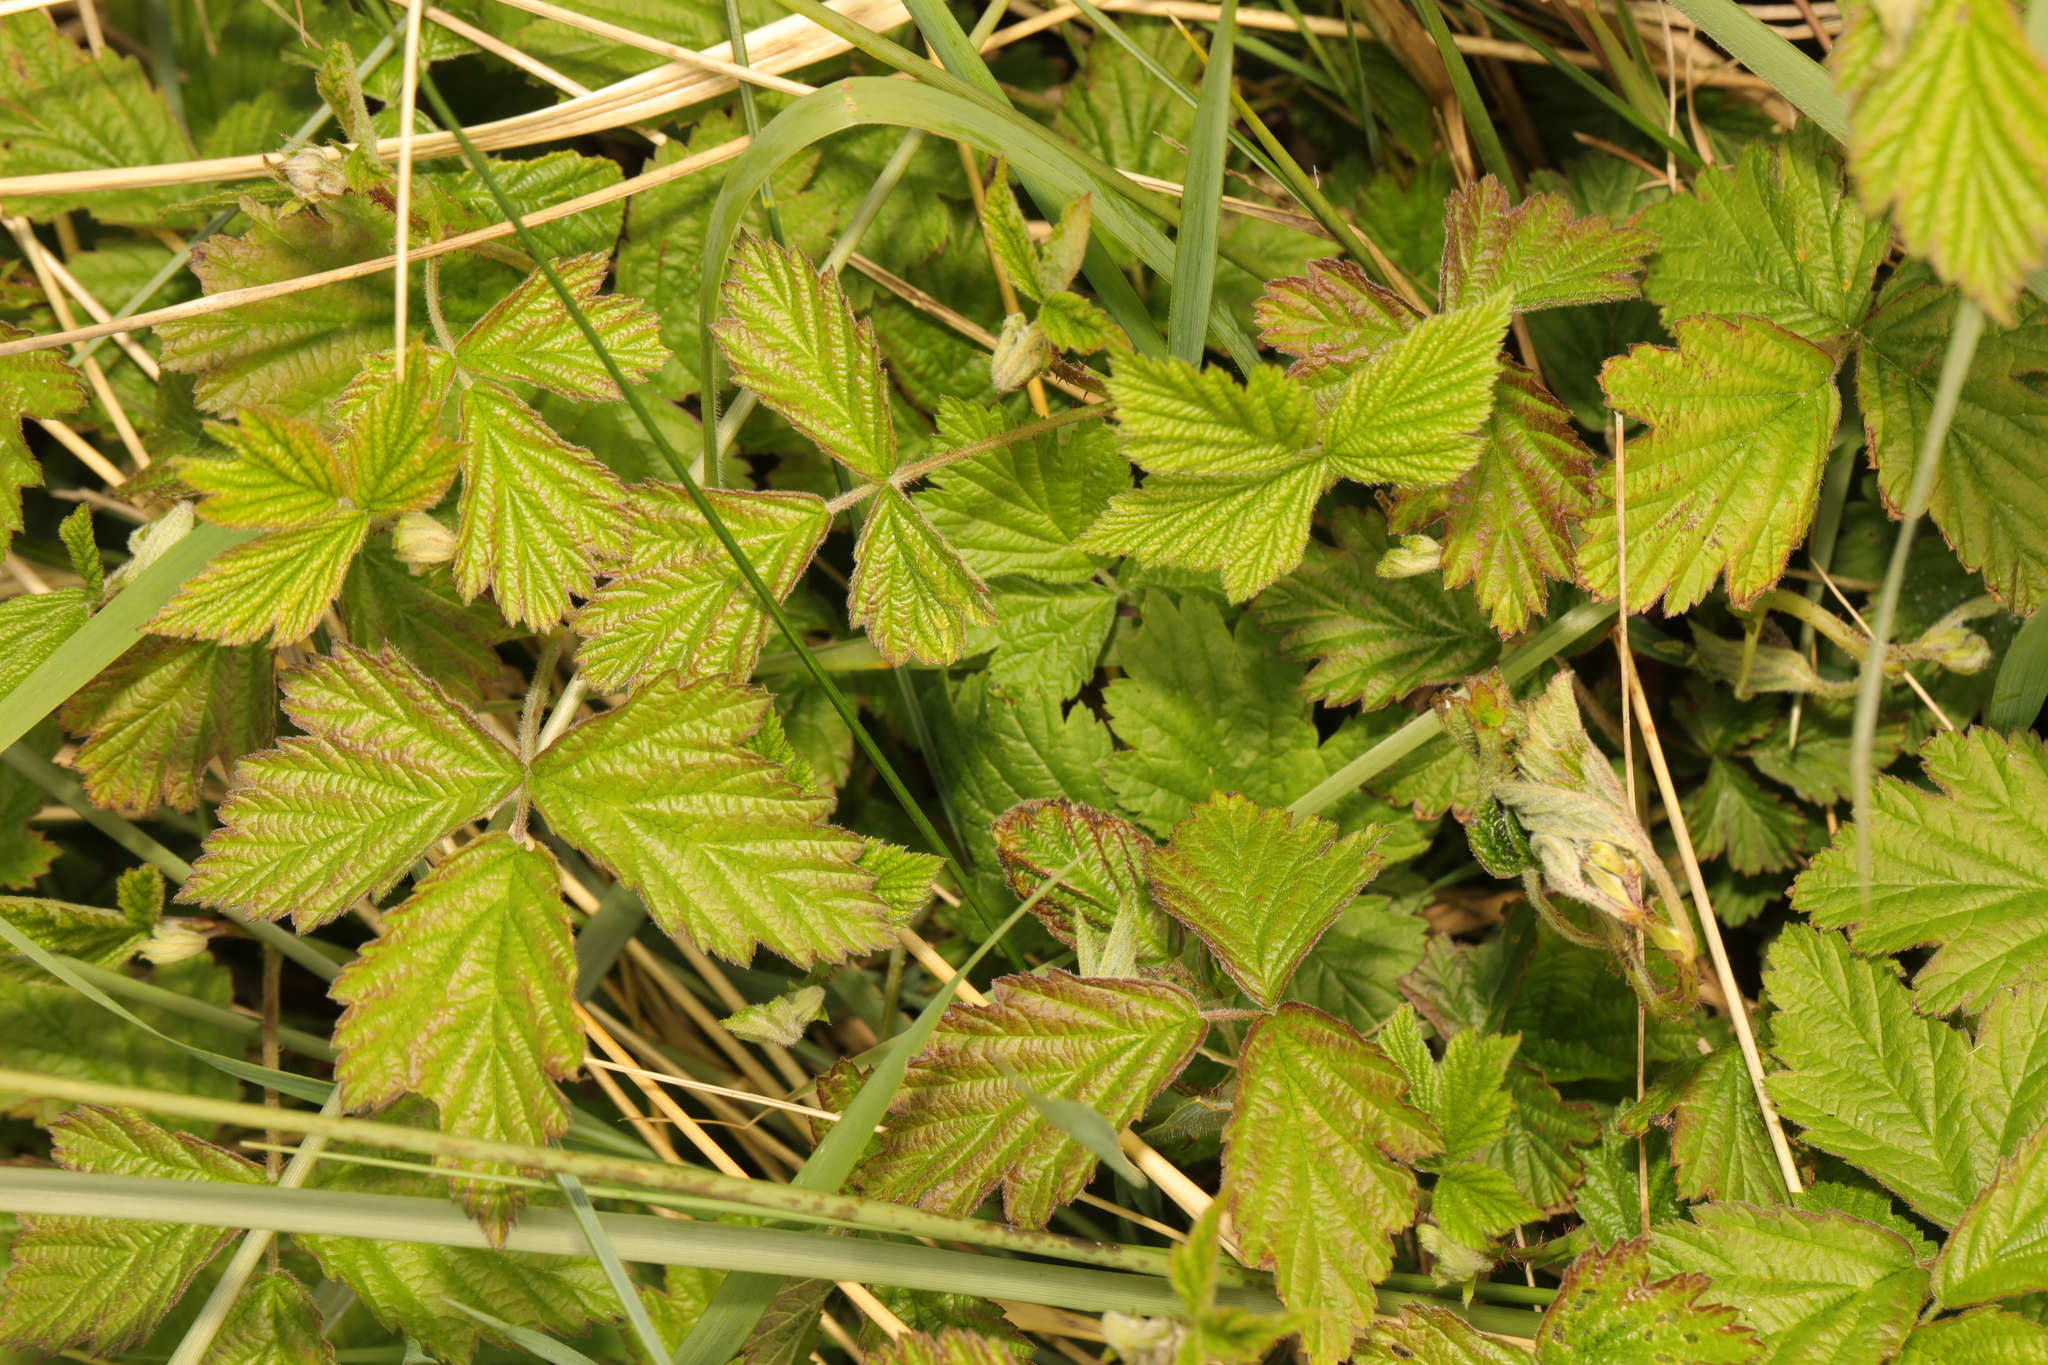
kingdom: Plantae
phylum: Tracheophyta
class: Magnoliopsida
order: Rosales
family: Rosaceae
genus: Rubus
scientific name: Rubus caesius
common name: Dewberry
